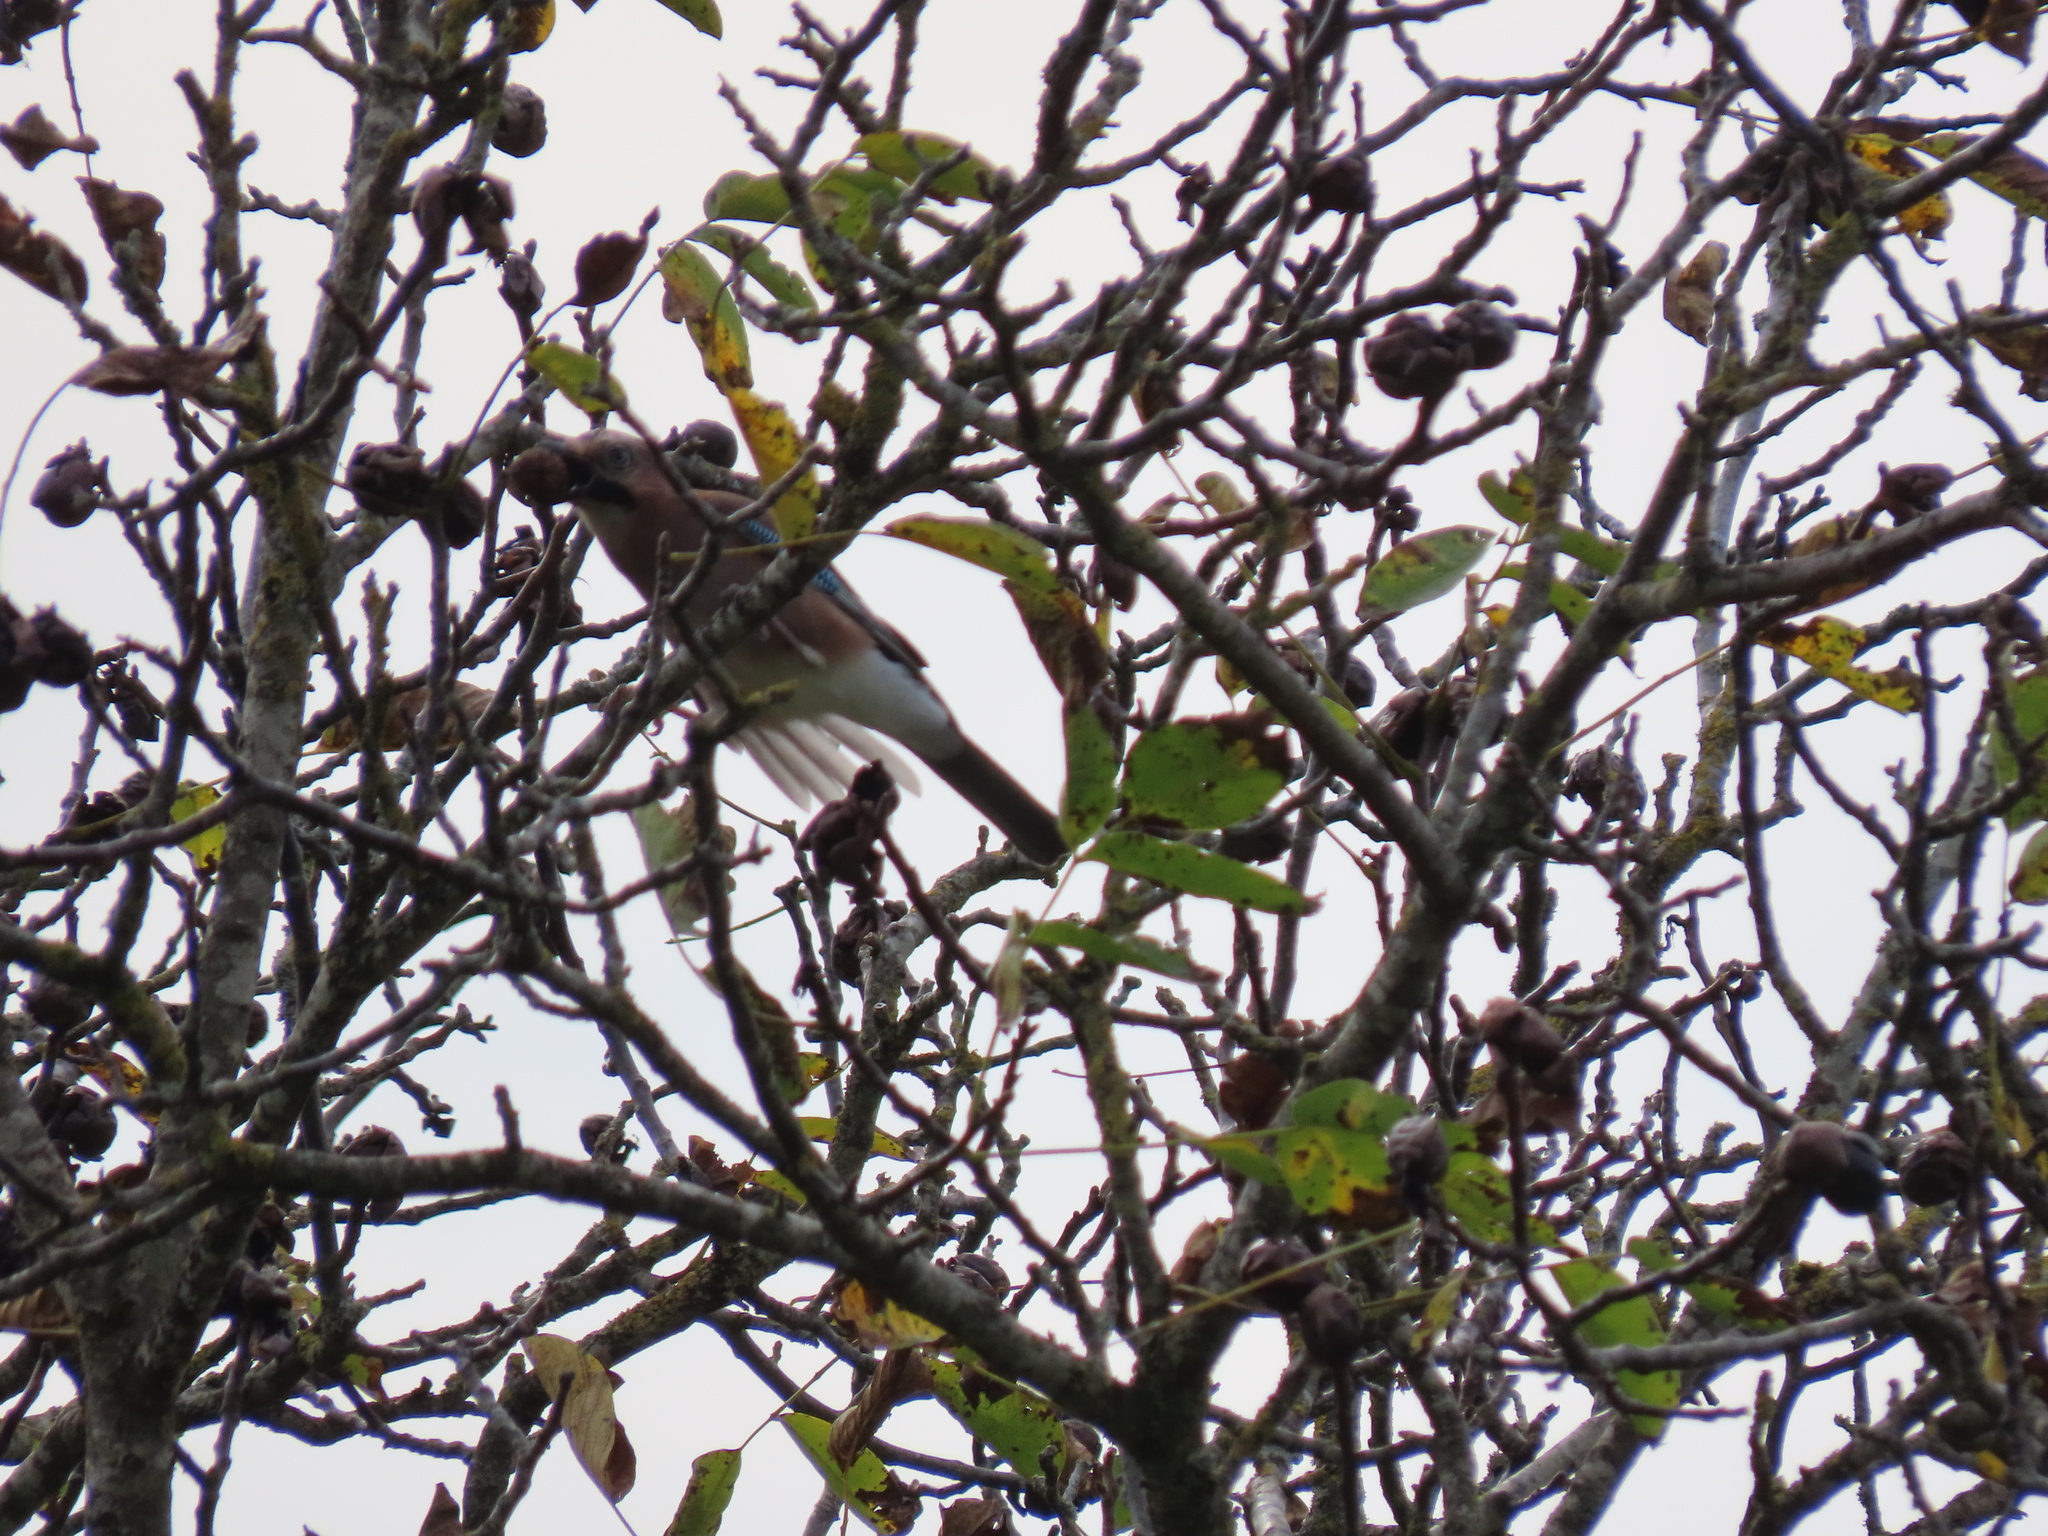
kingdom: Animalia
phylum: Chordata
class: Aves
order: Passeriformes
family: Corvidae
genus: Garrulus
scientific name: Garrulus glandarius
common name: Eurasian jay
